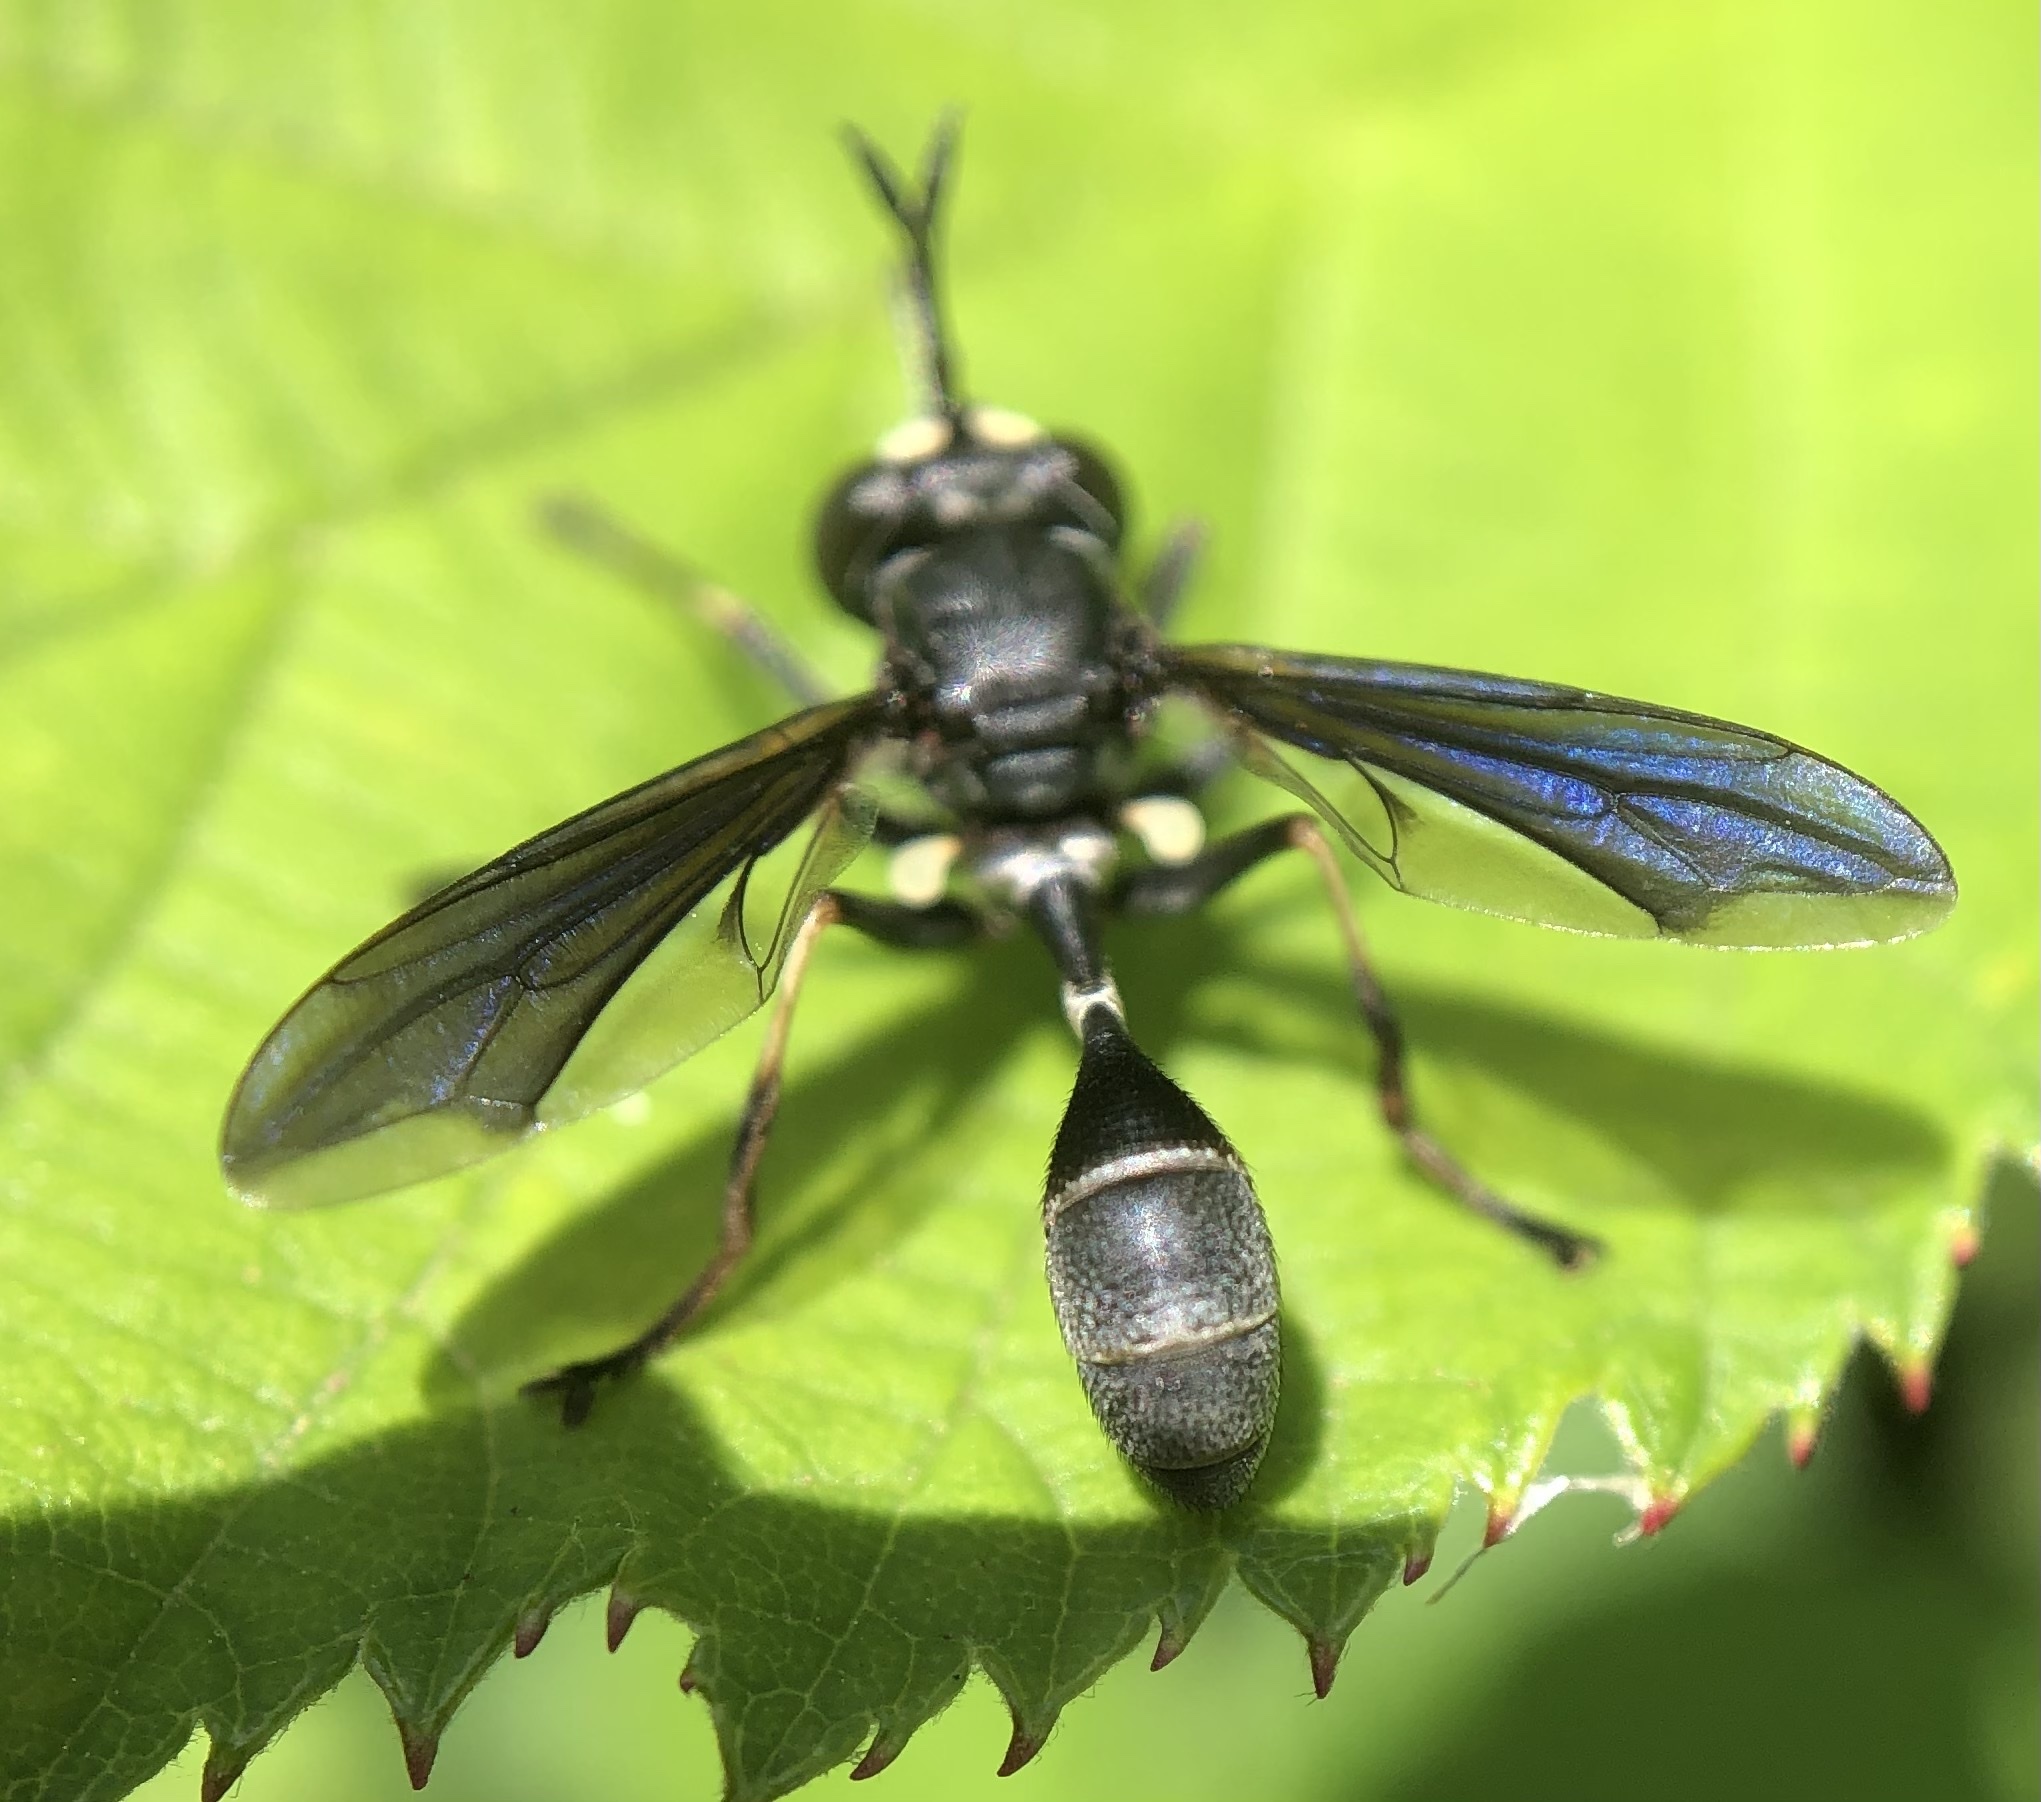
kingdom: Animalia
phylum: Arthropoda
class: Insecta
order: Diptera
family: Conopidae
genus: Physocephala
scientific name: Physocephala tibialis
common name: Common eastern physocephala
